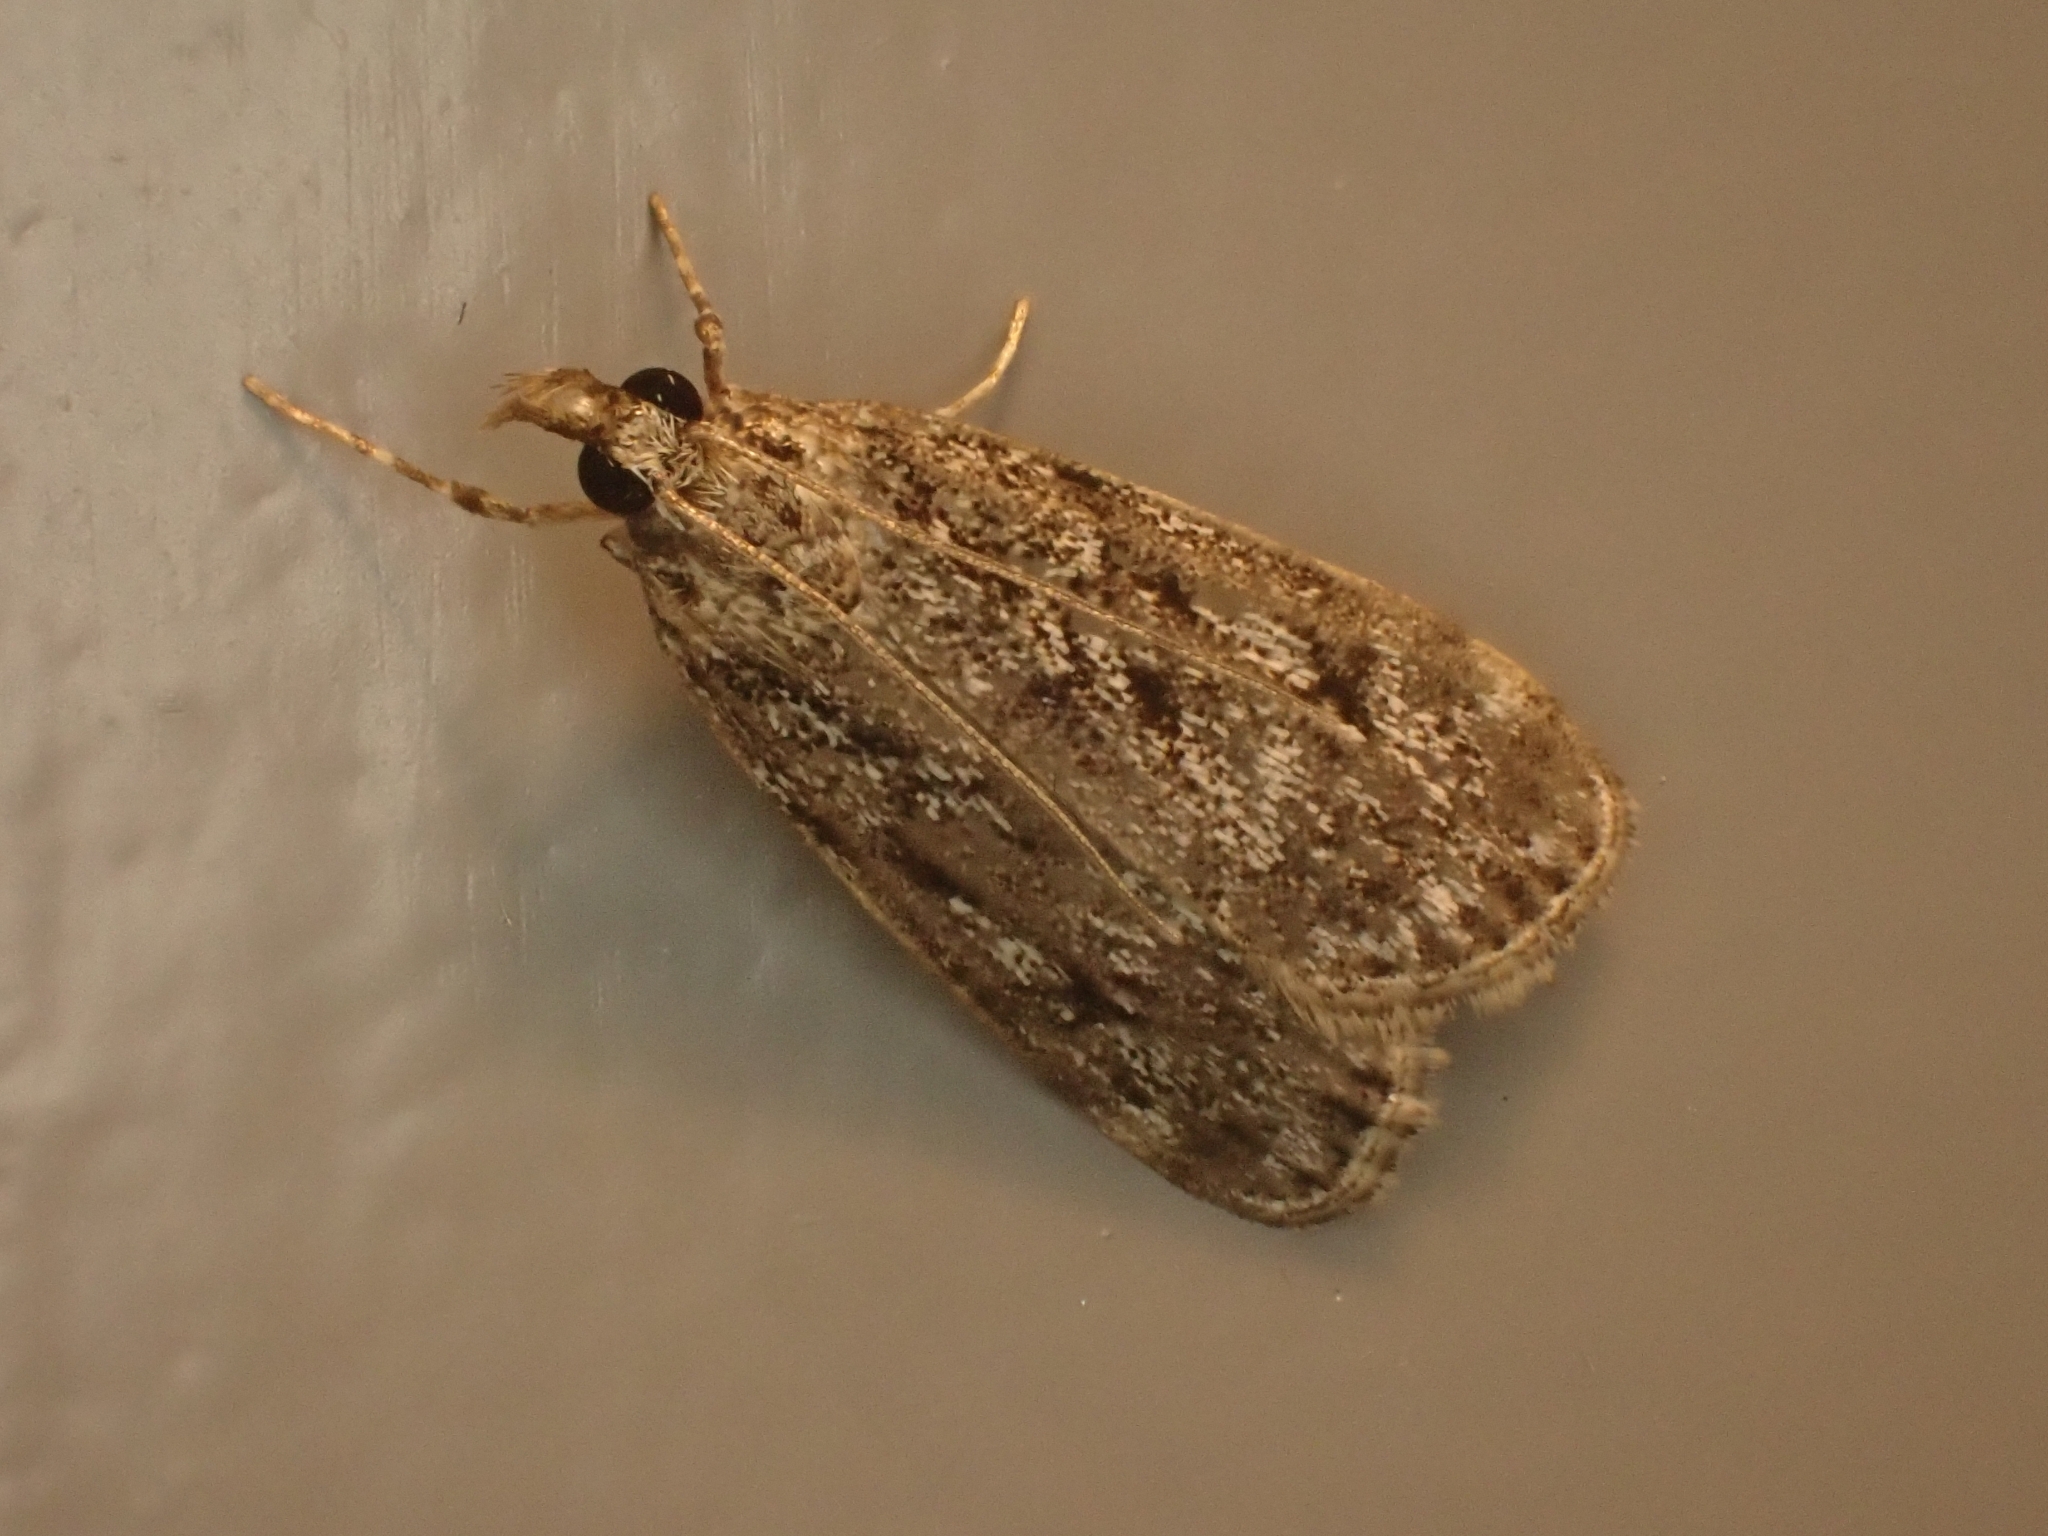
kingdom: Animalia
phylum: Arthropoda
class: Insecta
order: Lepidoptera
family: Crambidae
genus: Eudonia
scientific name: Eudonia truncicolella
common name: Ground-moss grey
